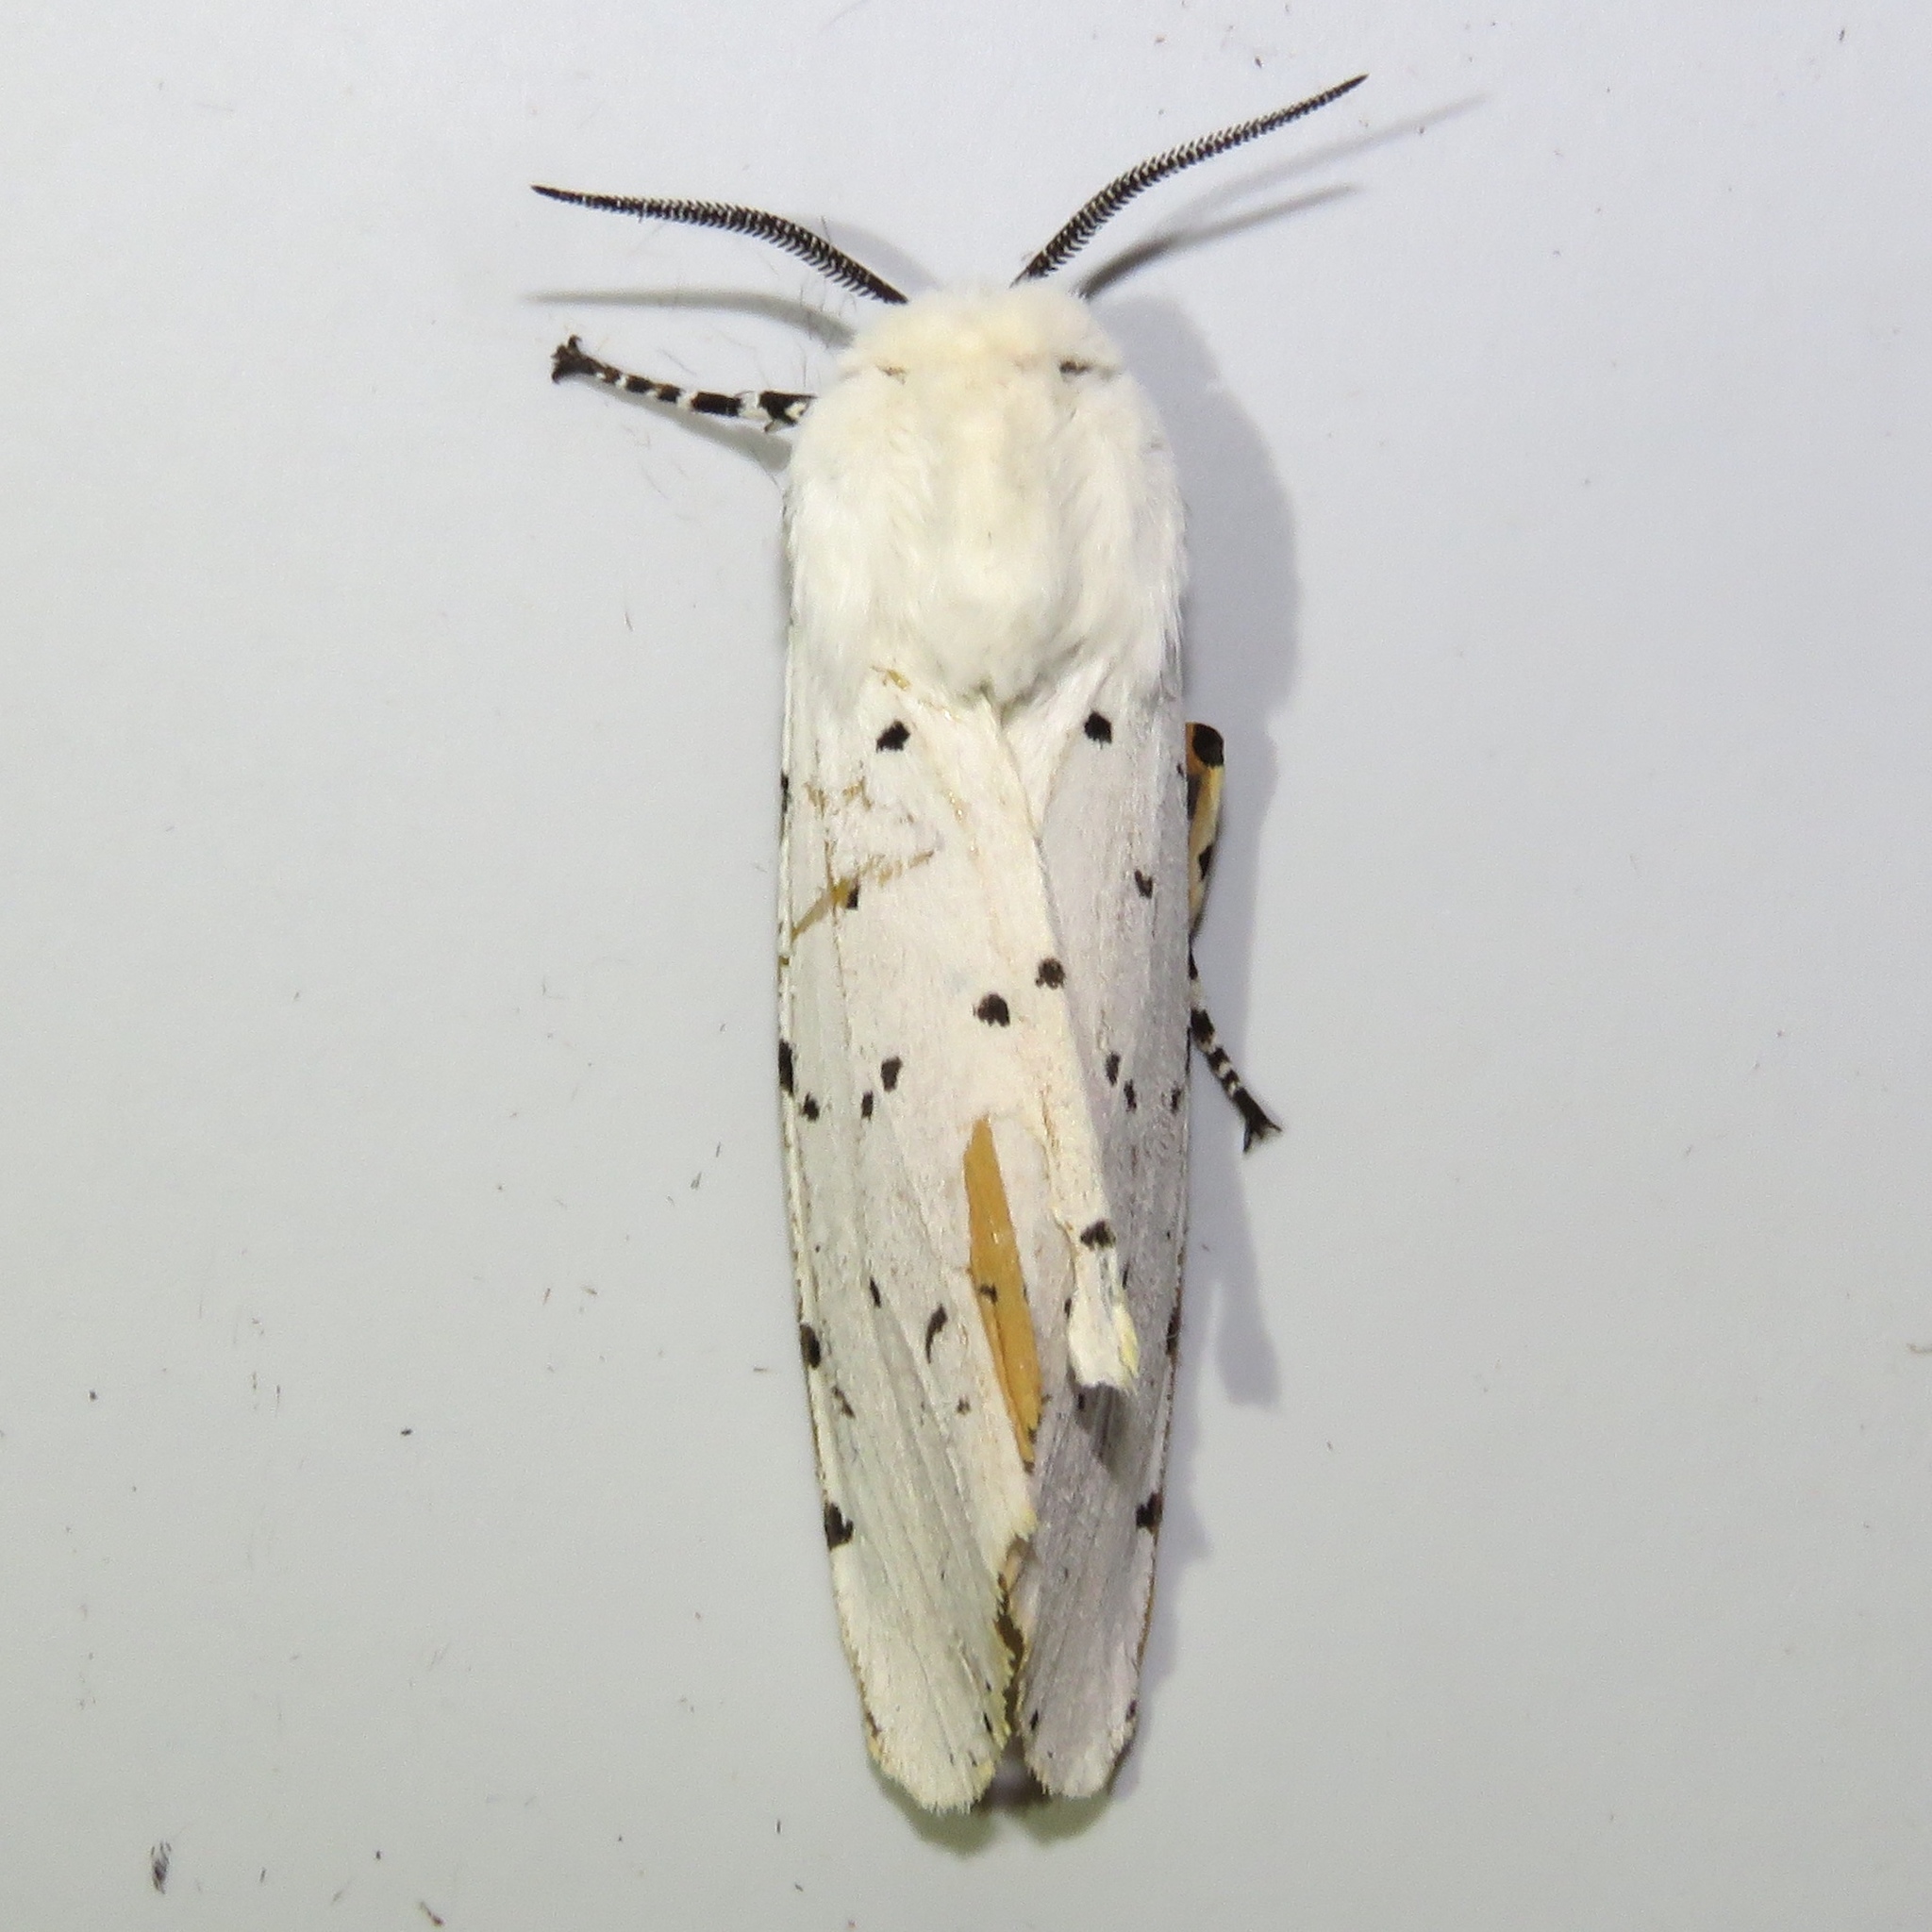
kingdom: Animalia
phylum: Arthropoda
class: Insecta
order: Lepidoptera
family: Erebidae
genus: Estigmene
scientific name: Estigmene acrea
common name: Salt marsh moth
